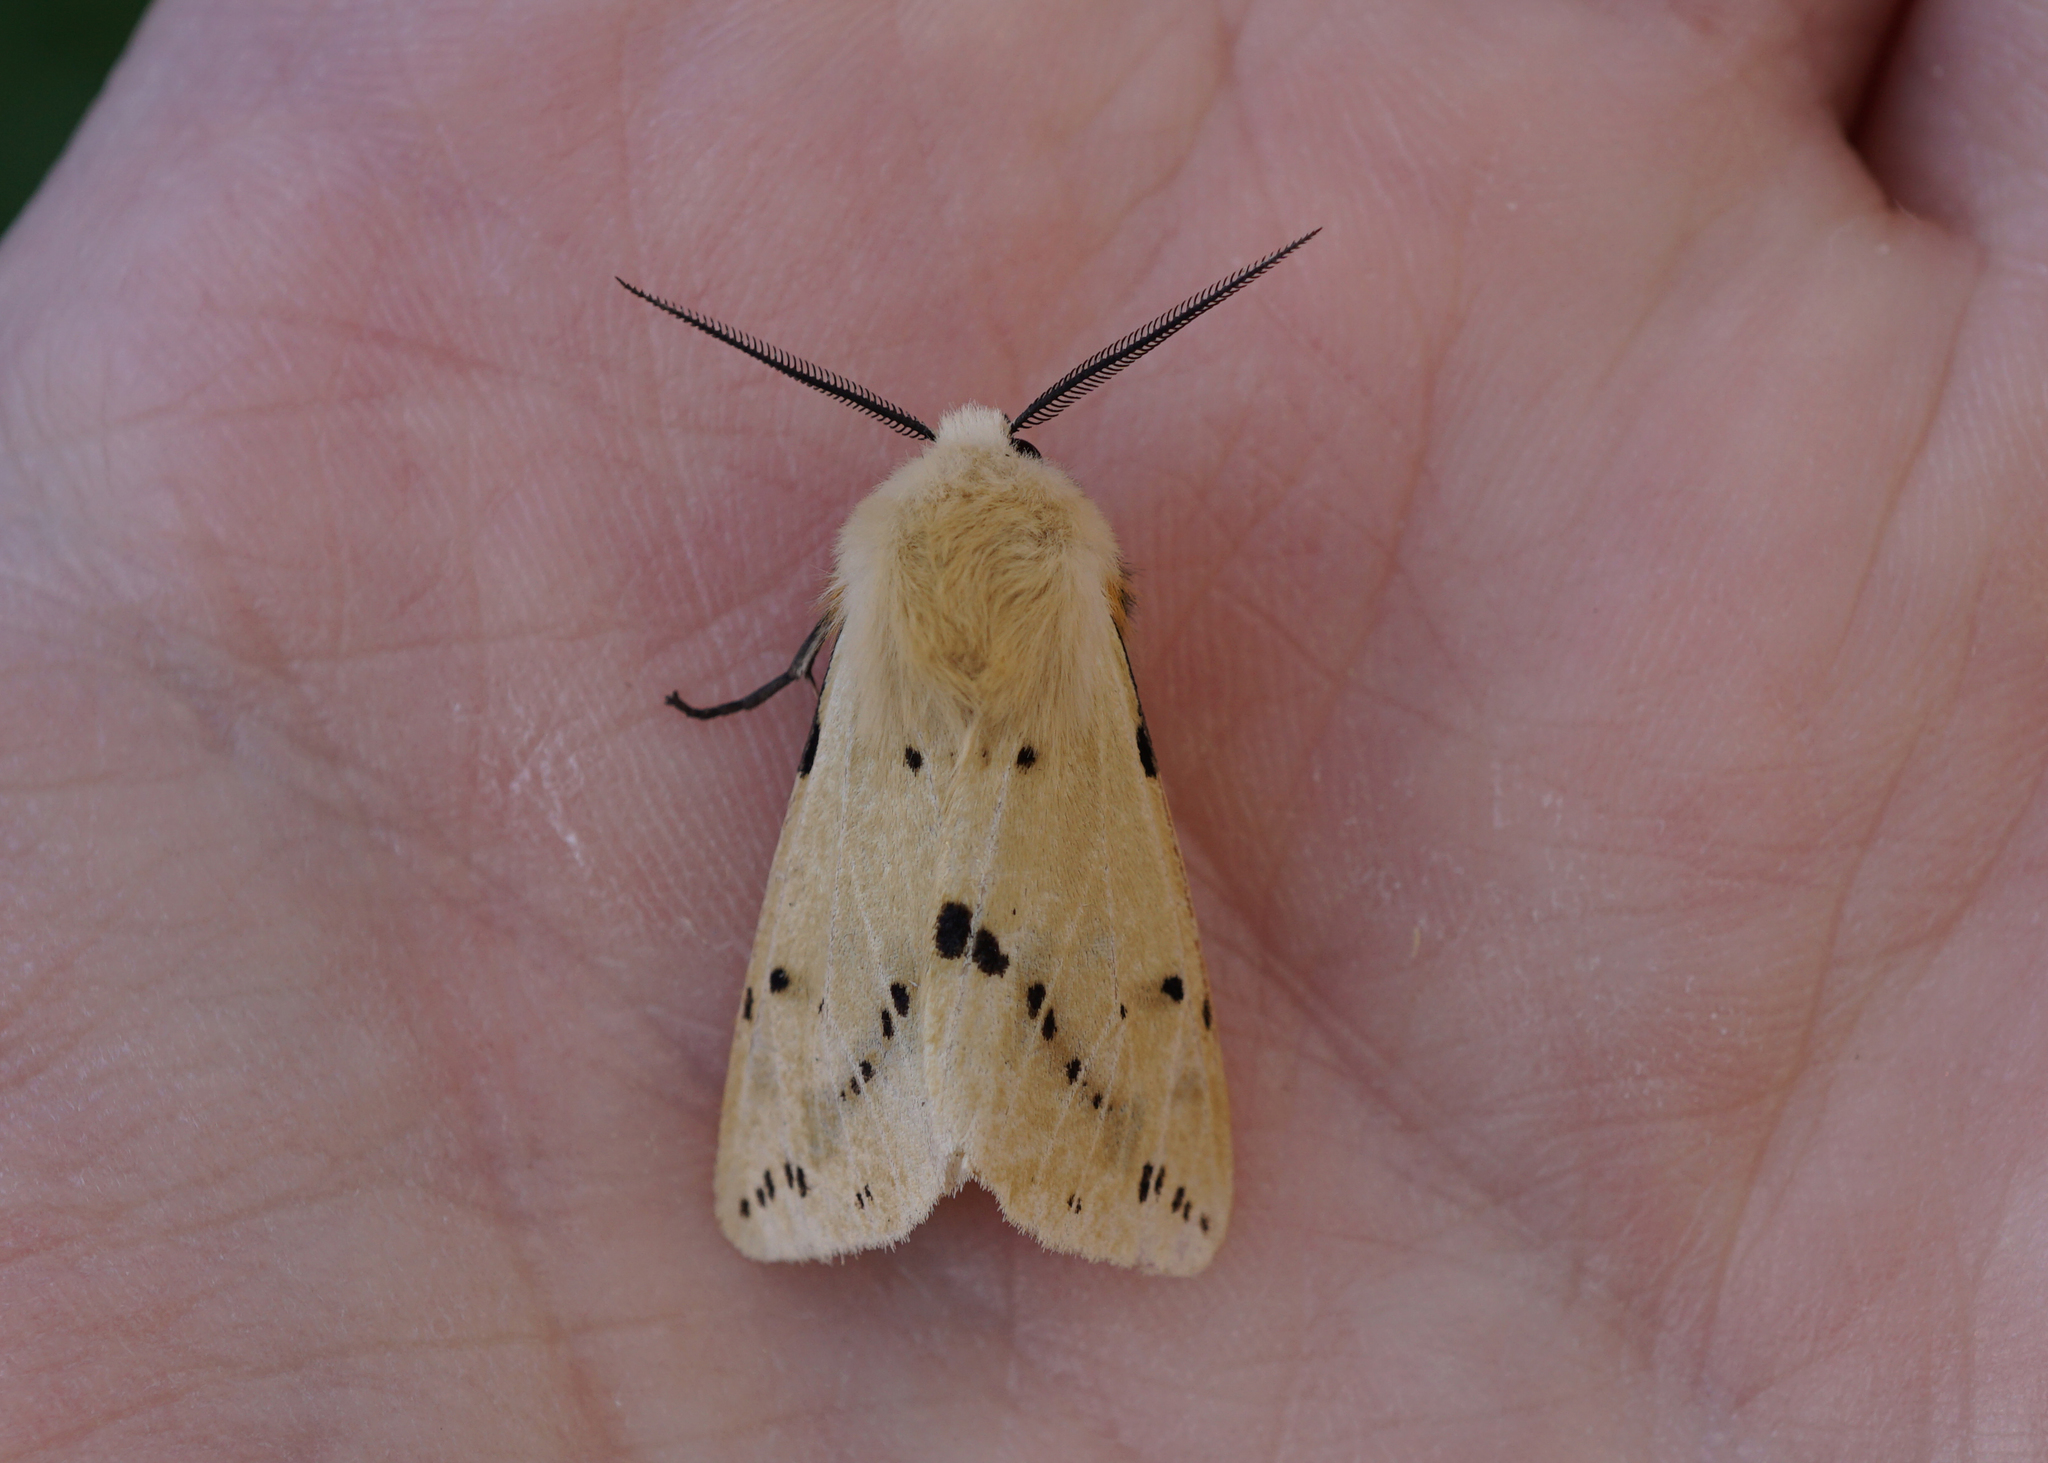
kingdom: Animalia
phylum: Arthropoda
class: Insecta
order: Lepidoptera
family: Erebidae
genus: Spilarctia
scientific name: Spilarctia lutea
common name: Buff ermine
